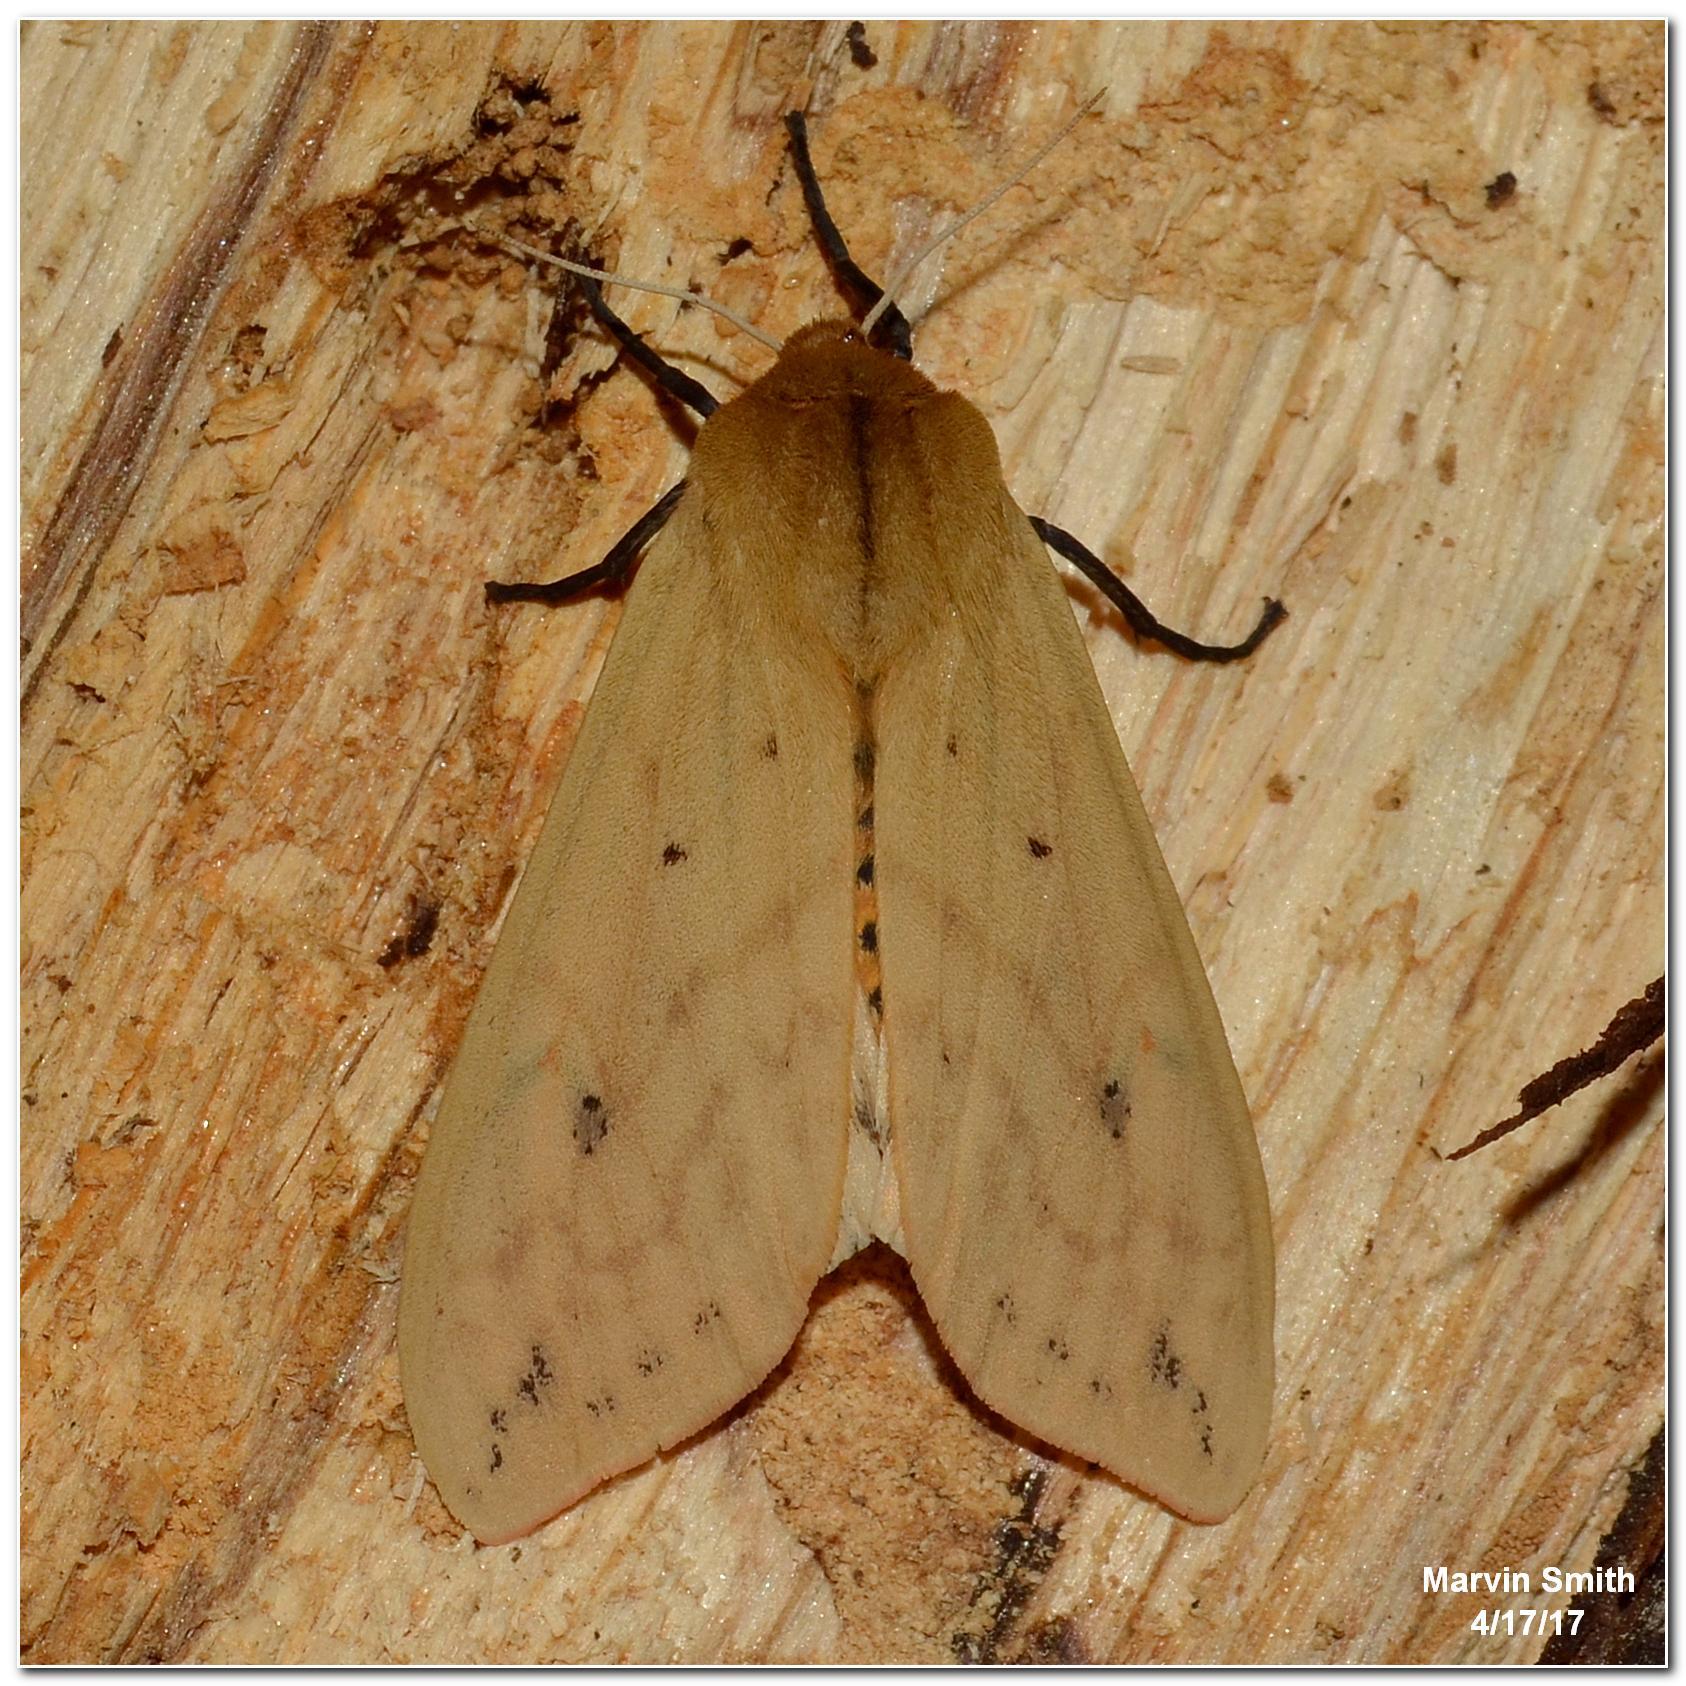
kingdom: Animalia
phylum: Arthropoda
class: Insecta
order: Lepidoptera
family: Erebidae
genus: Pyrrharctia
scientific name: Pyrrharctia isabella
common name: Isabella tiger moth
